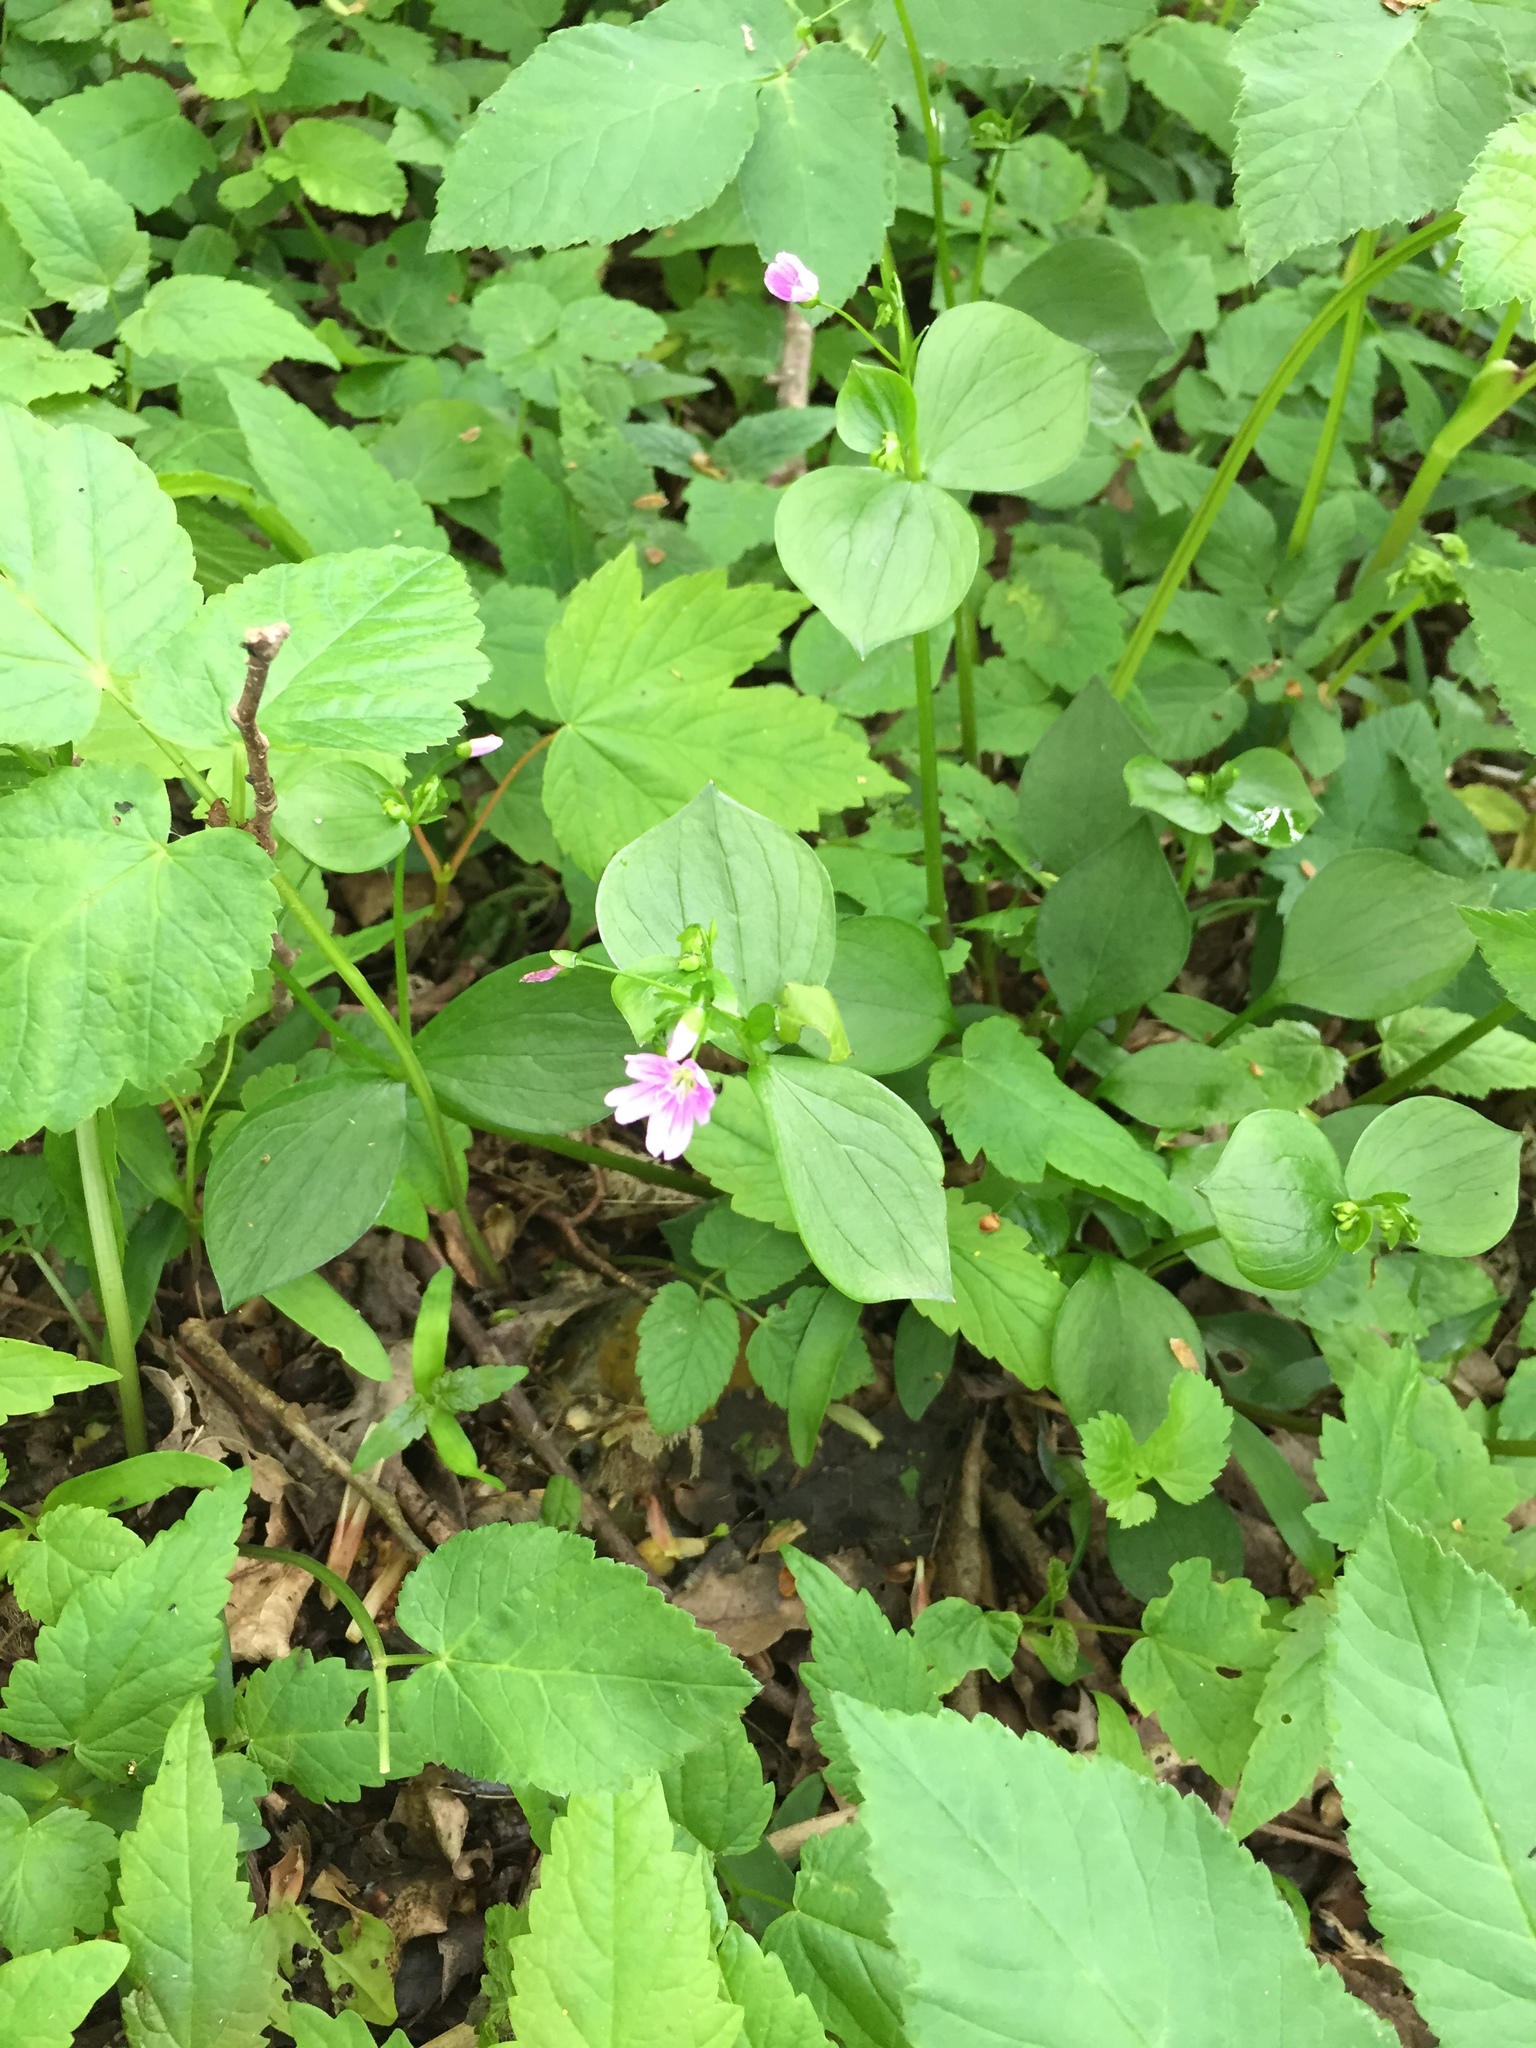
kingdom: Plantae
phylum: Tracheophyta
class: Magnoliopsida
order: Caryophyllales
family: Montiaceae
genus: Claytonia
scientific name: Claytonia sibirica
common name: Pink purslane
